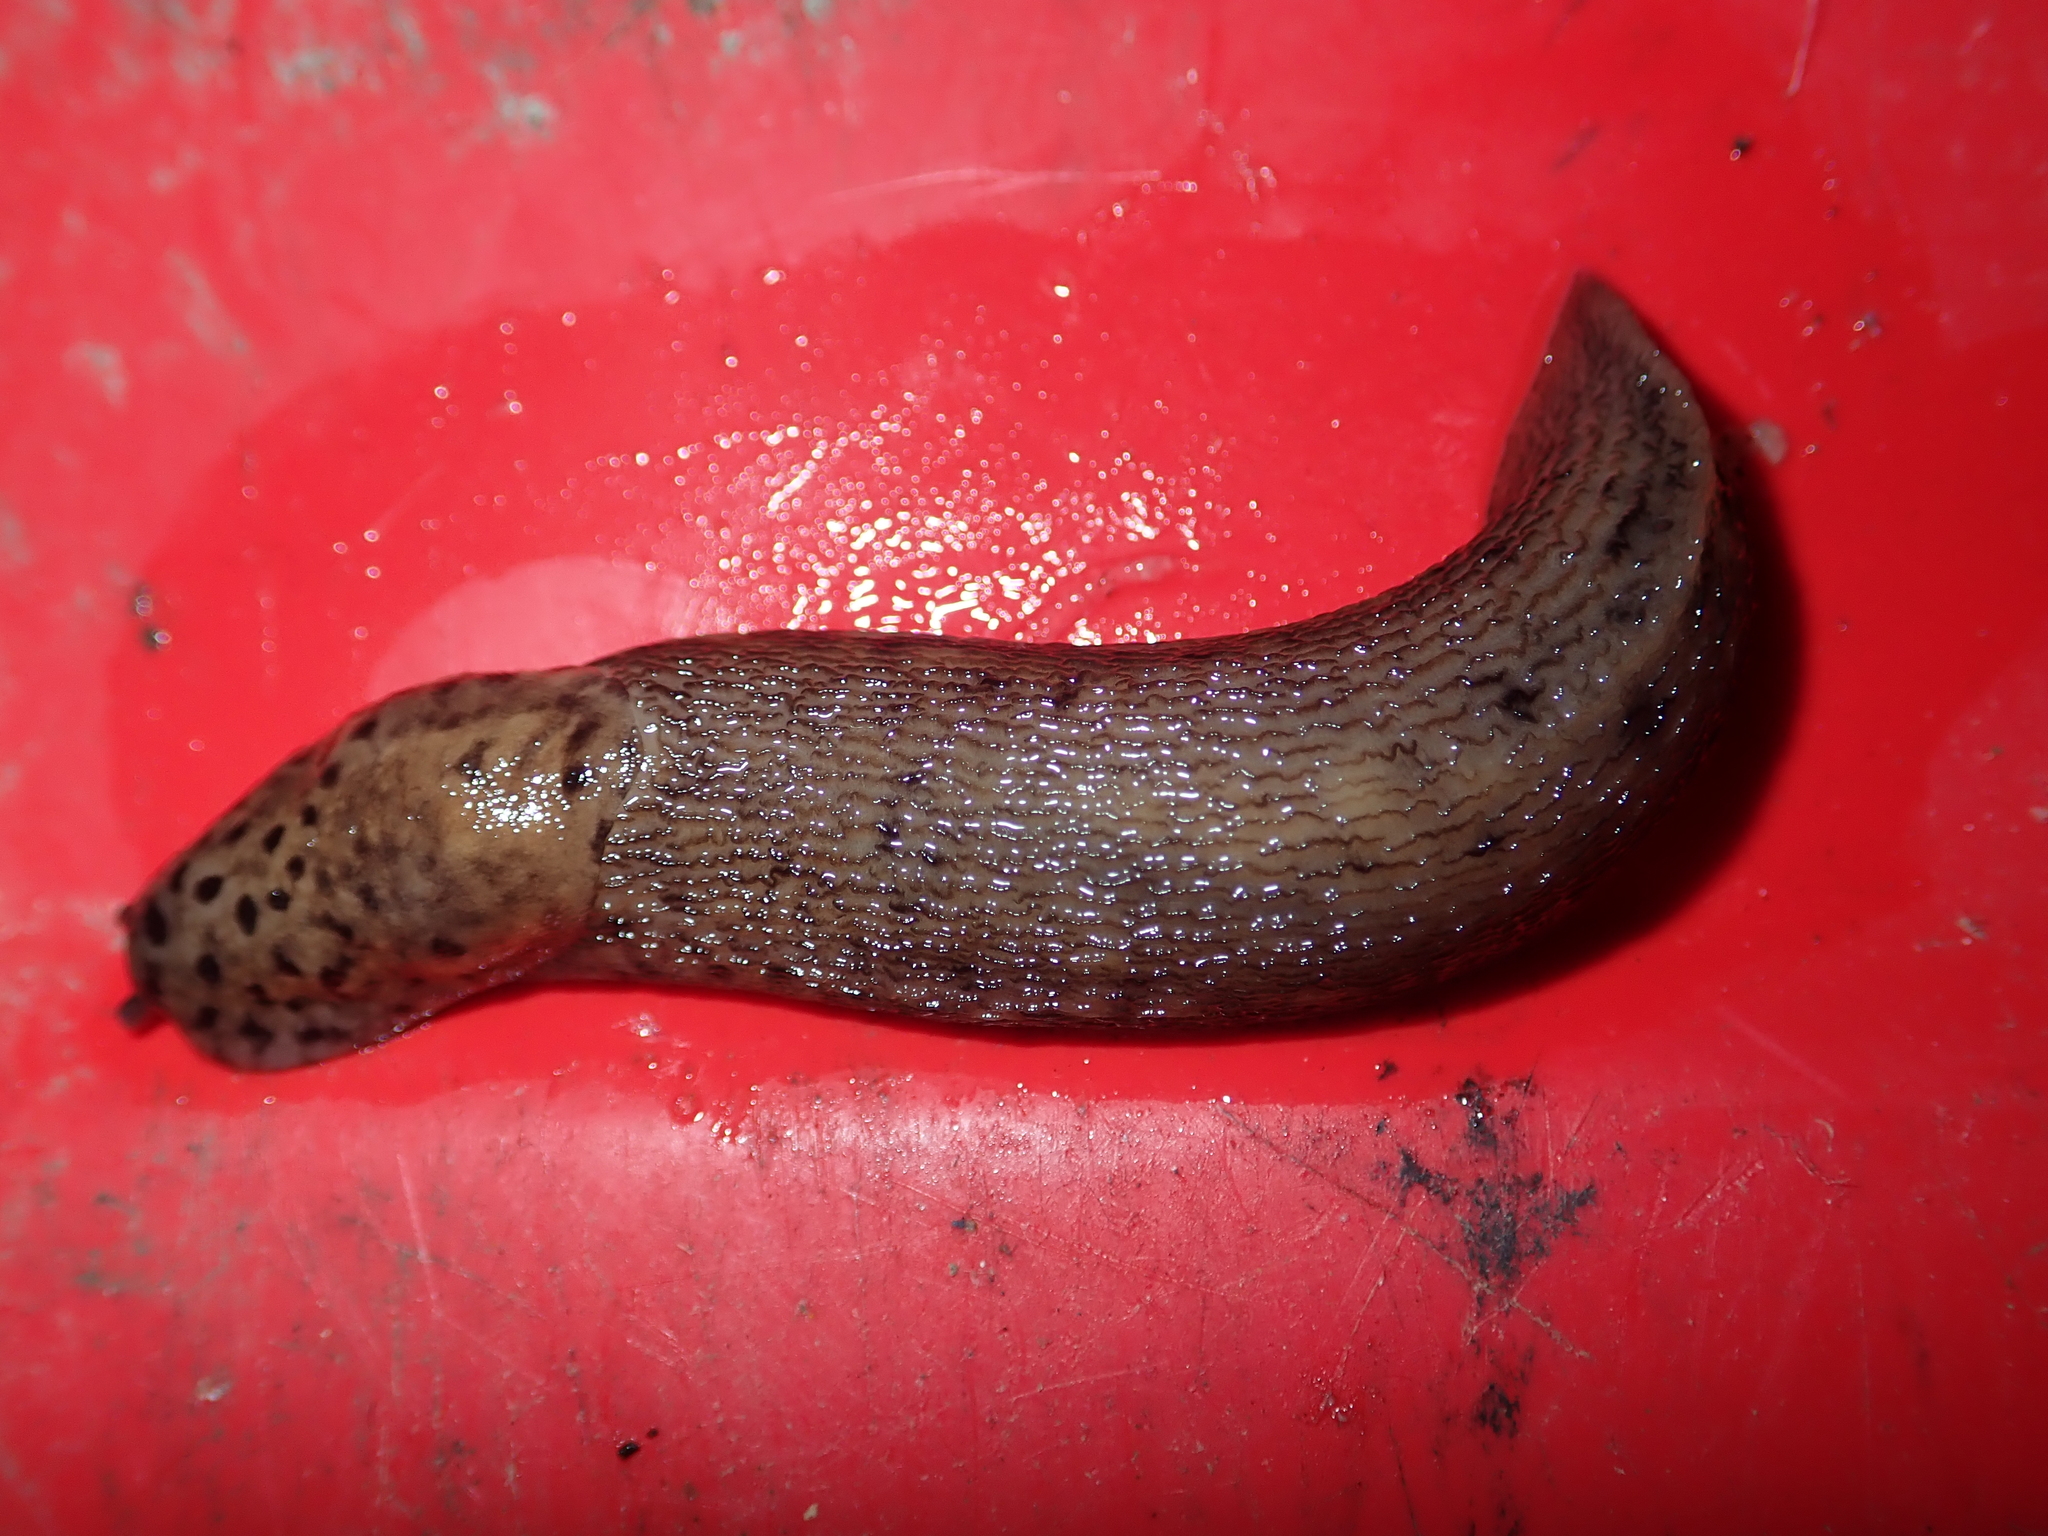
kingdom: Animalia
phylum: Mollusca
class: Gastropoda
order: Stylommatophora
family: Limacidae
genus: Limax
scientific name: Limax maximus
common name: Great grey slug
